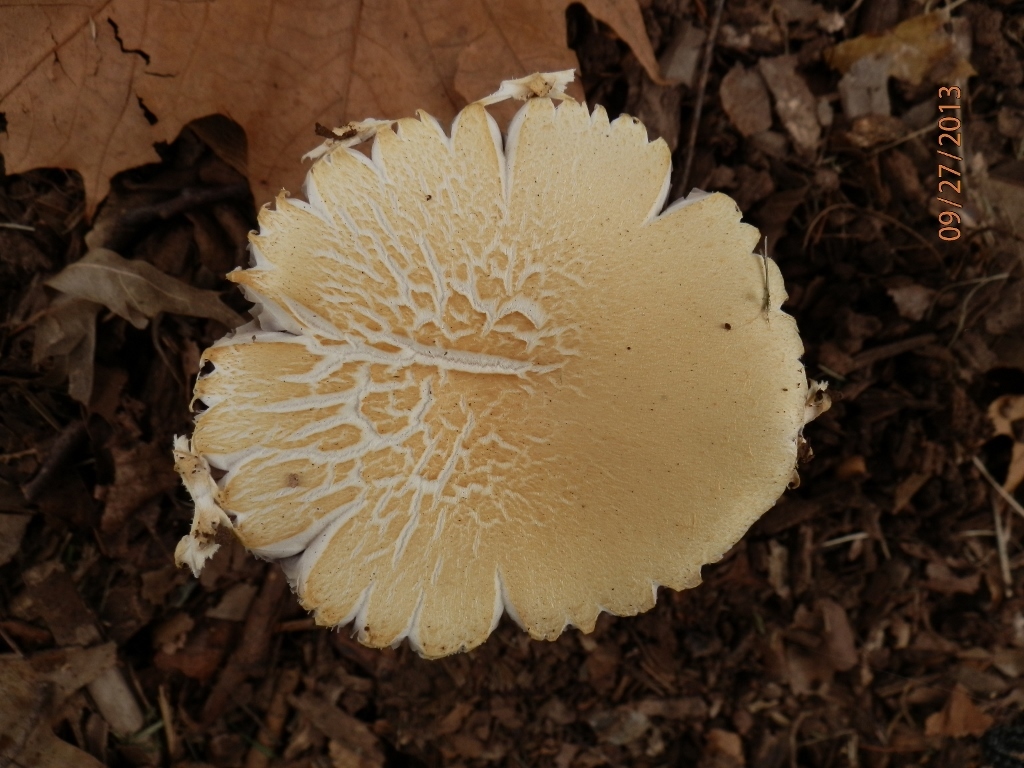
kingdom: Fungi
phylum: Basidiomycota
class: Agaricomycetes
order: Agaricales
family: Strophariaceae
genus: Stropharia
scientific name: Stropharia hardii
